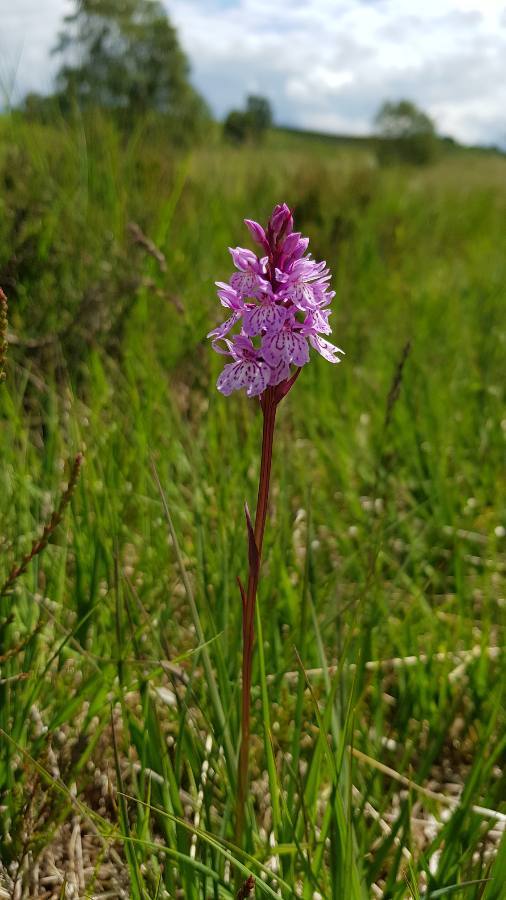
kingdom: Plantae
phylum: Tracheophyta
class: Liliopsida
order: Asparagales
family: Orchidaceae
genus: Dactylorhiza
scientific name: Dactylorhiza maculata
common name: Heath spotted-orchid
